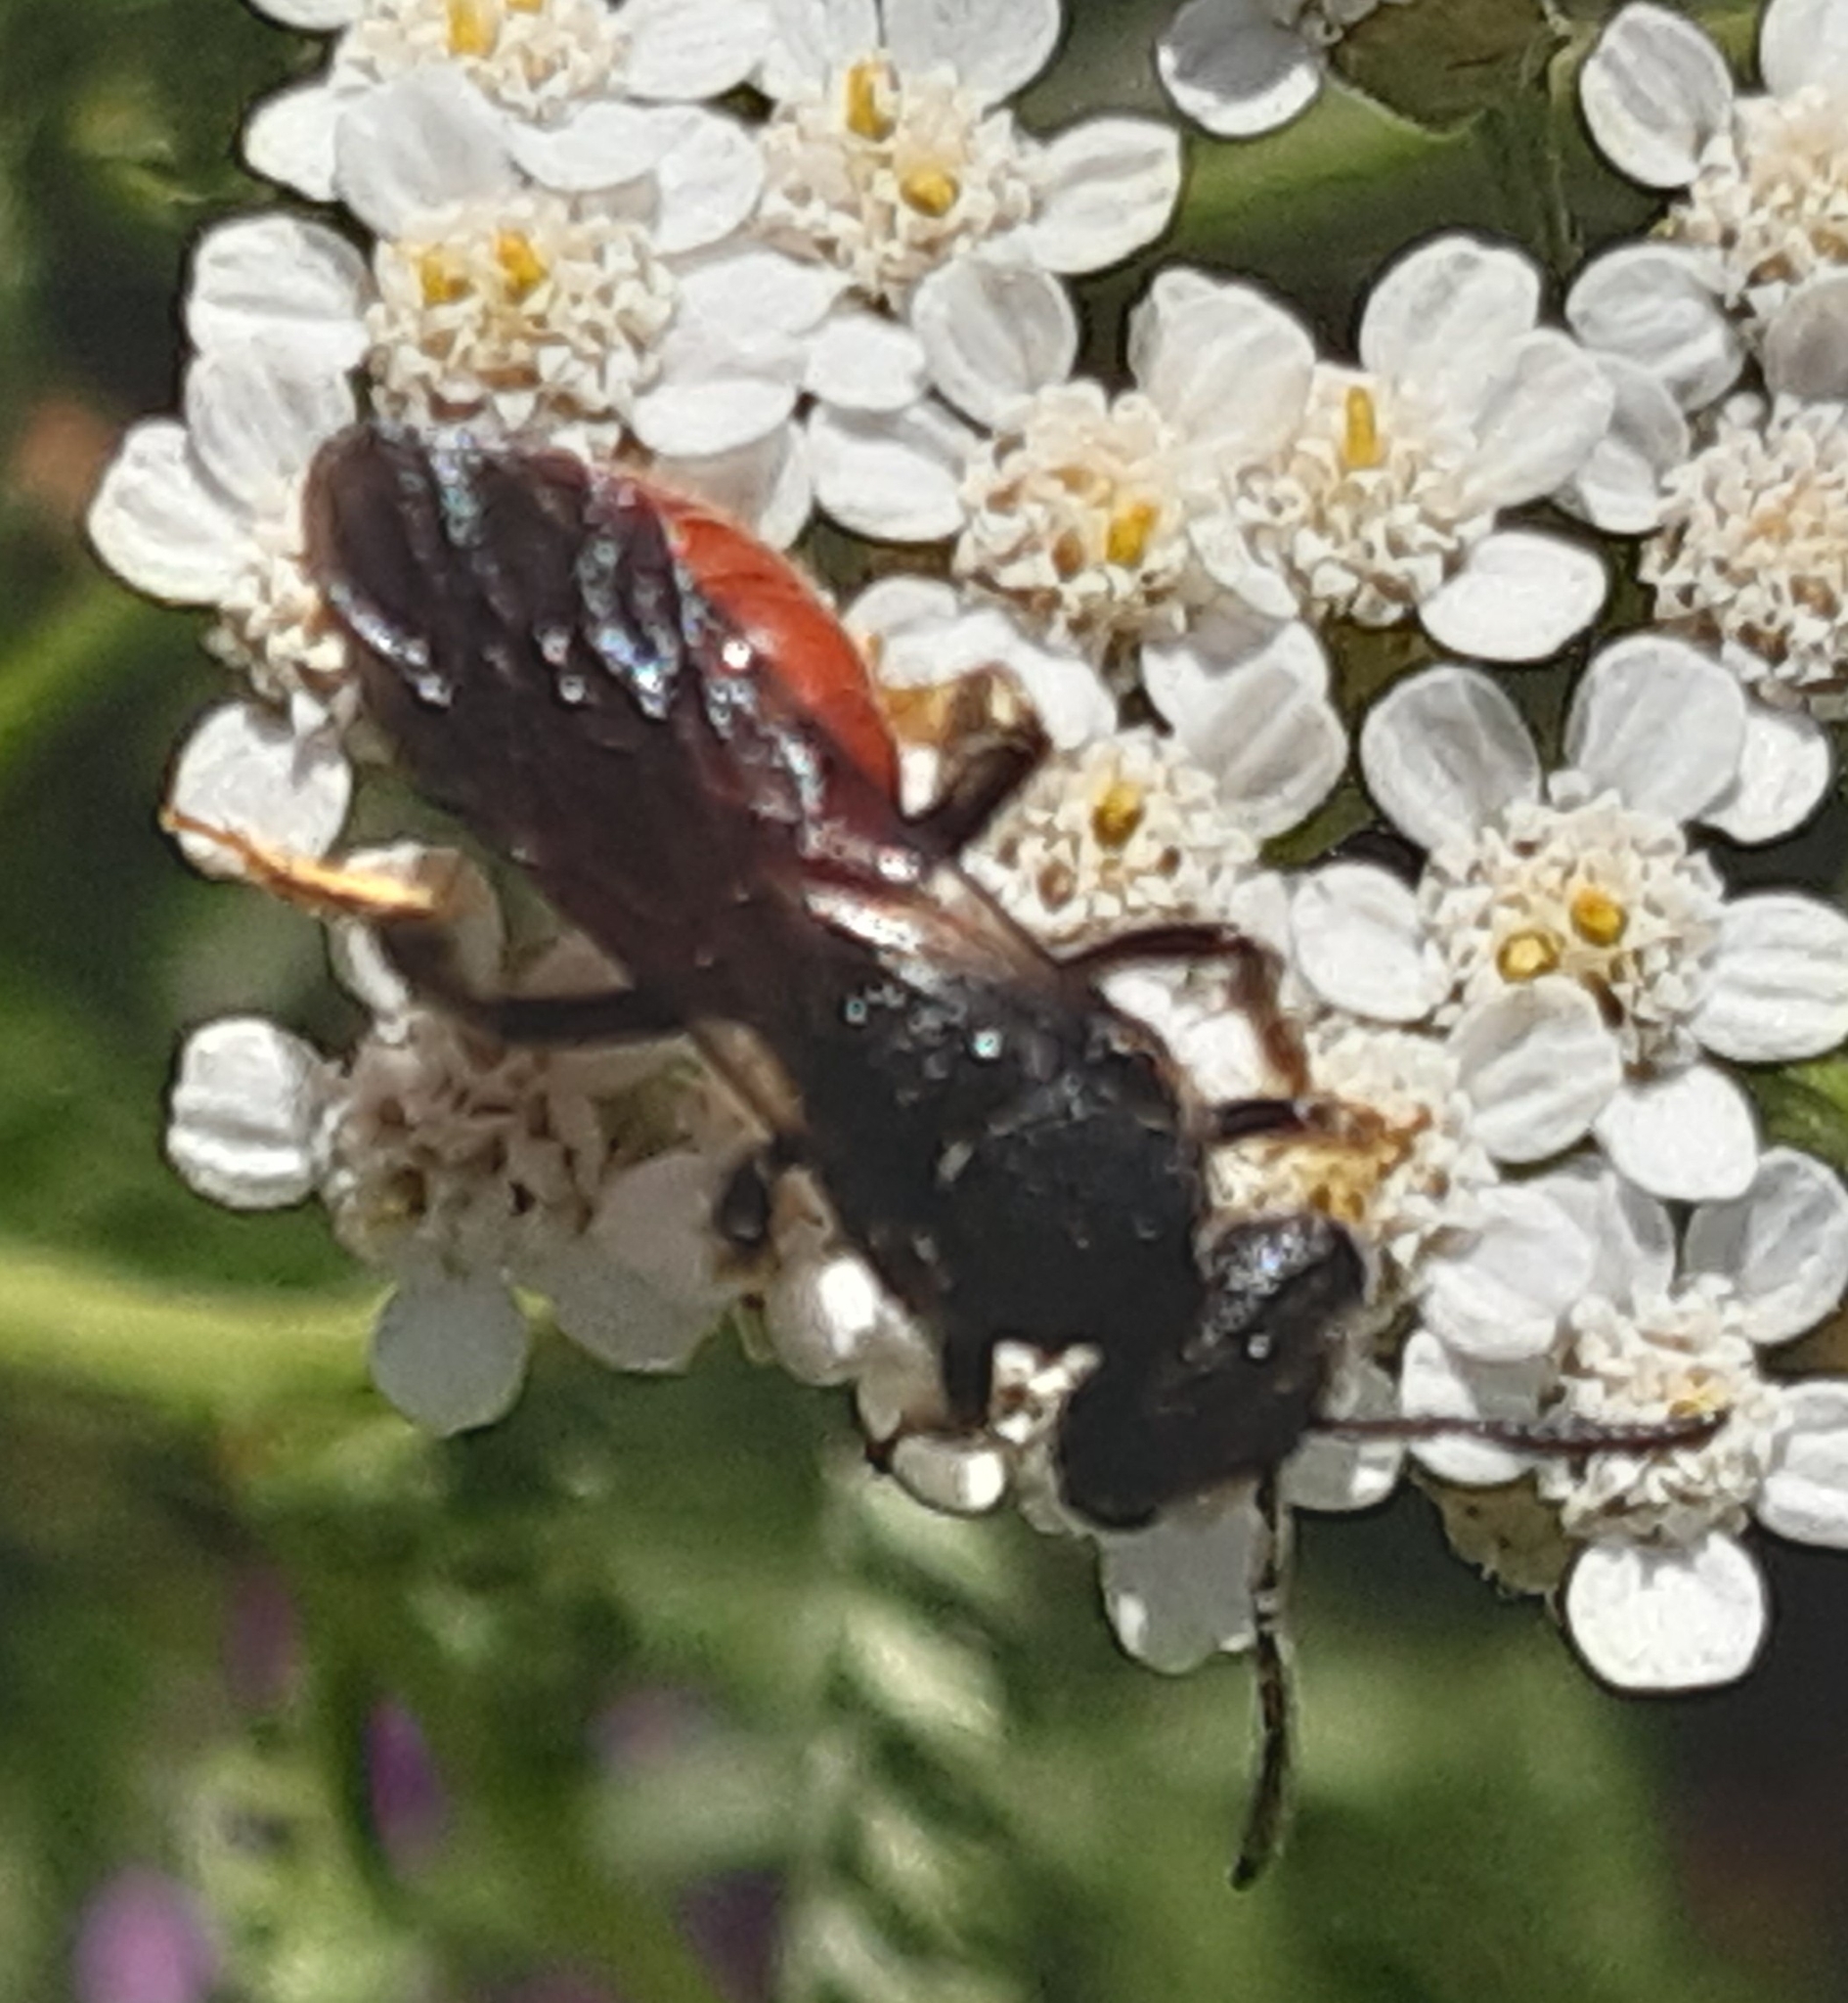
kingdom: Animalia
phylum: Arthropoda
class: Insecta
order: Hymenoptera
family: Halictidae
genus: Sphecodes
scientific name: Sphecodes albilabris
